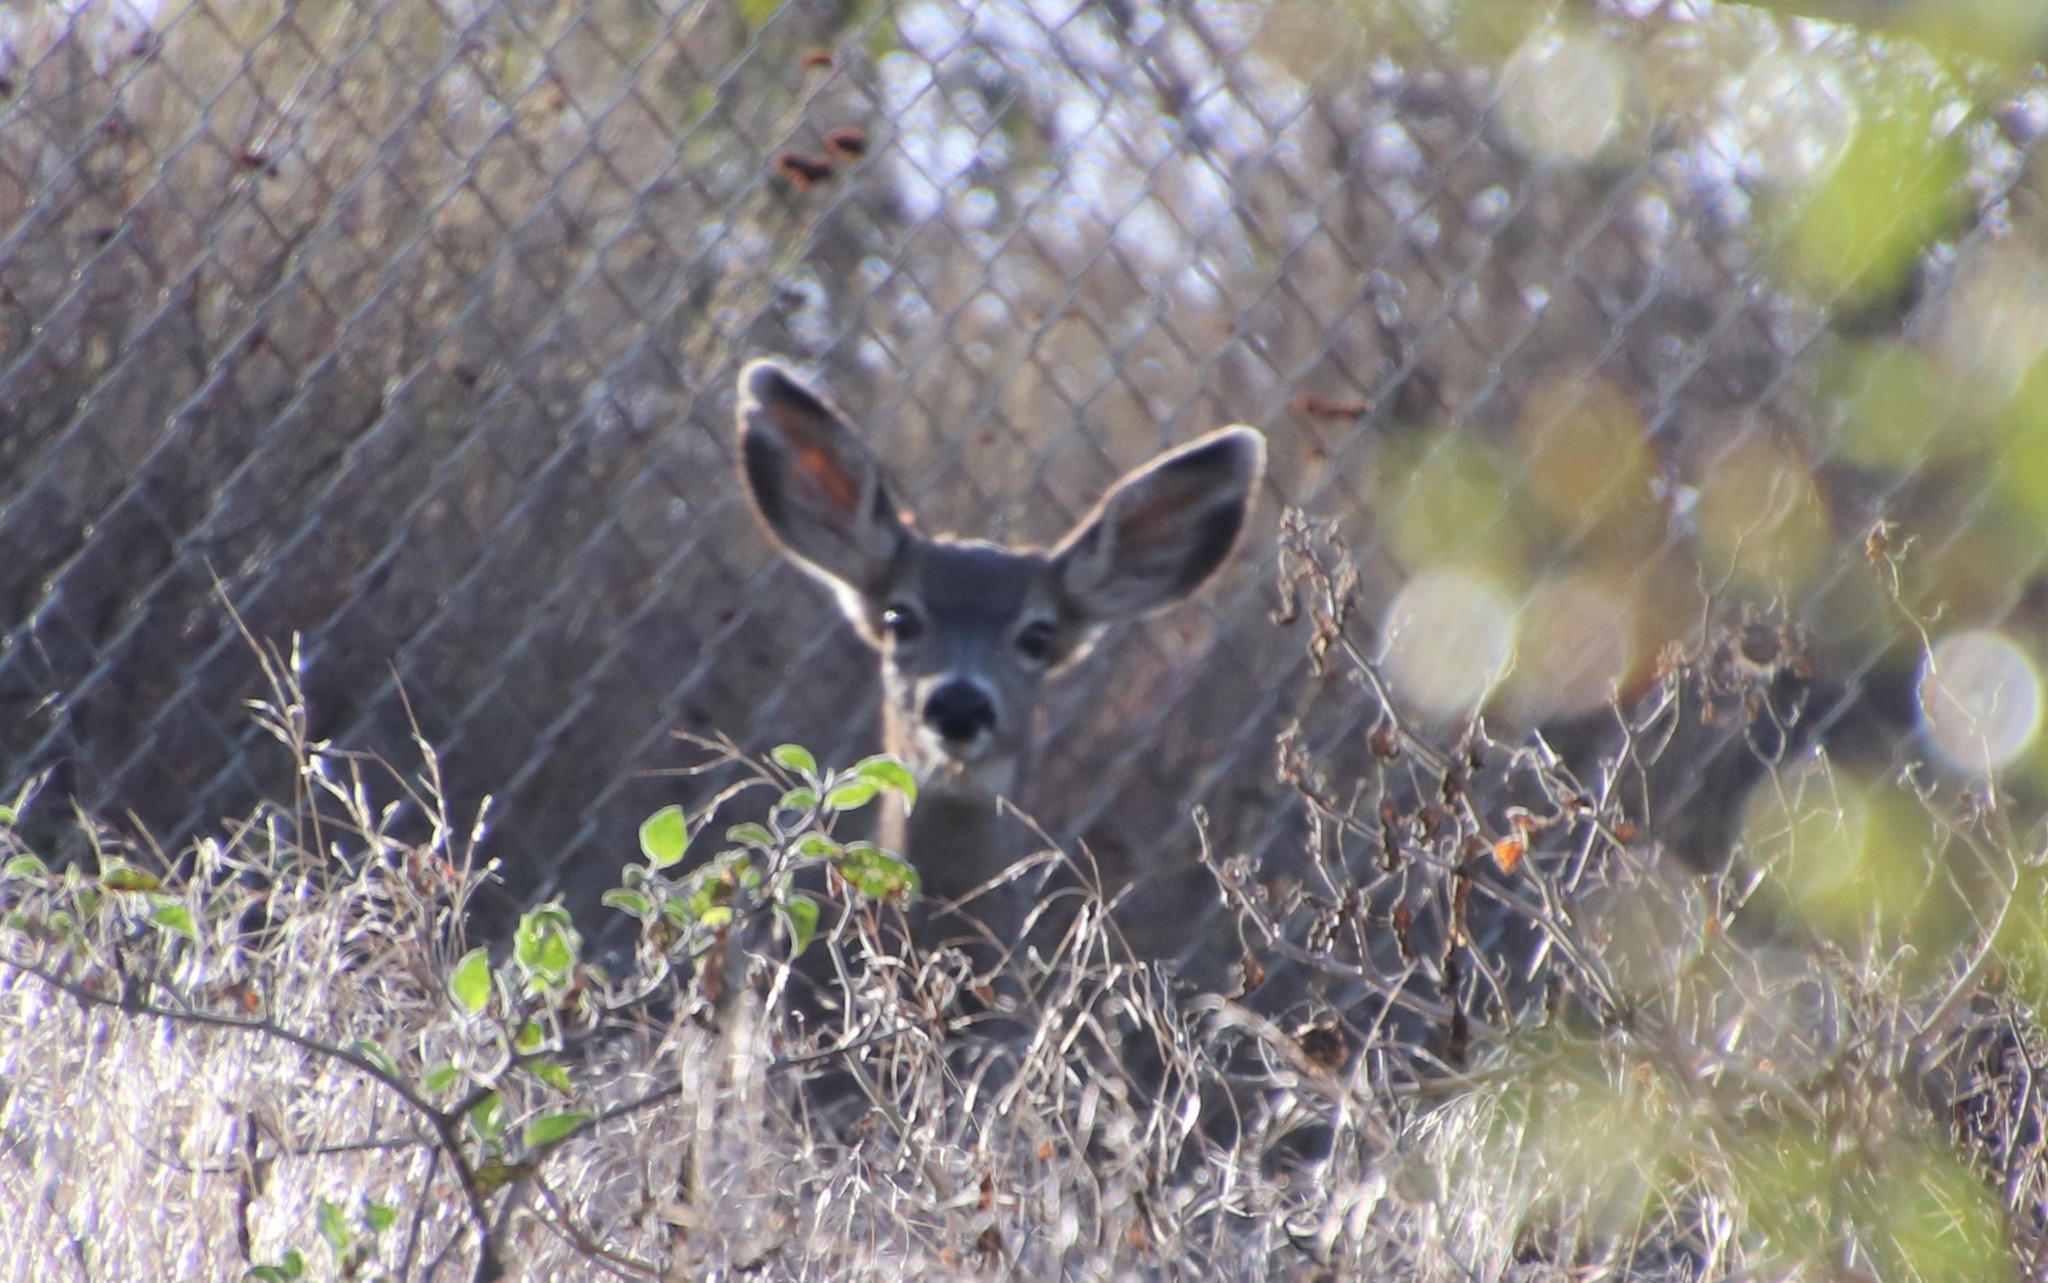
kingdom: Animalia
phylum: Chordata
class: Mammalia
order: Artiodactyla
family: Cervidae
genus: Odocoileus
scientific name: Odocoileus hemionus
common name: Mule deer
